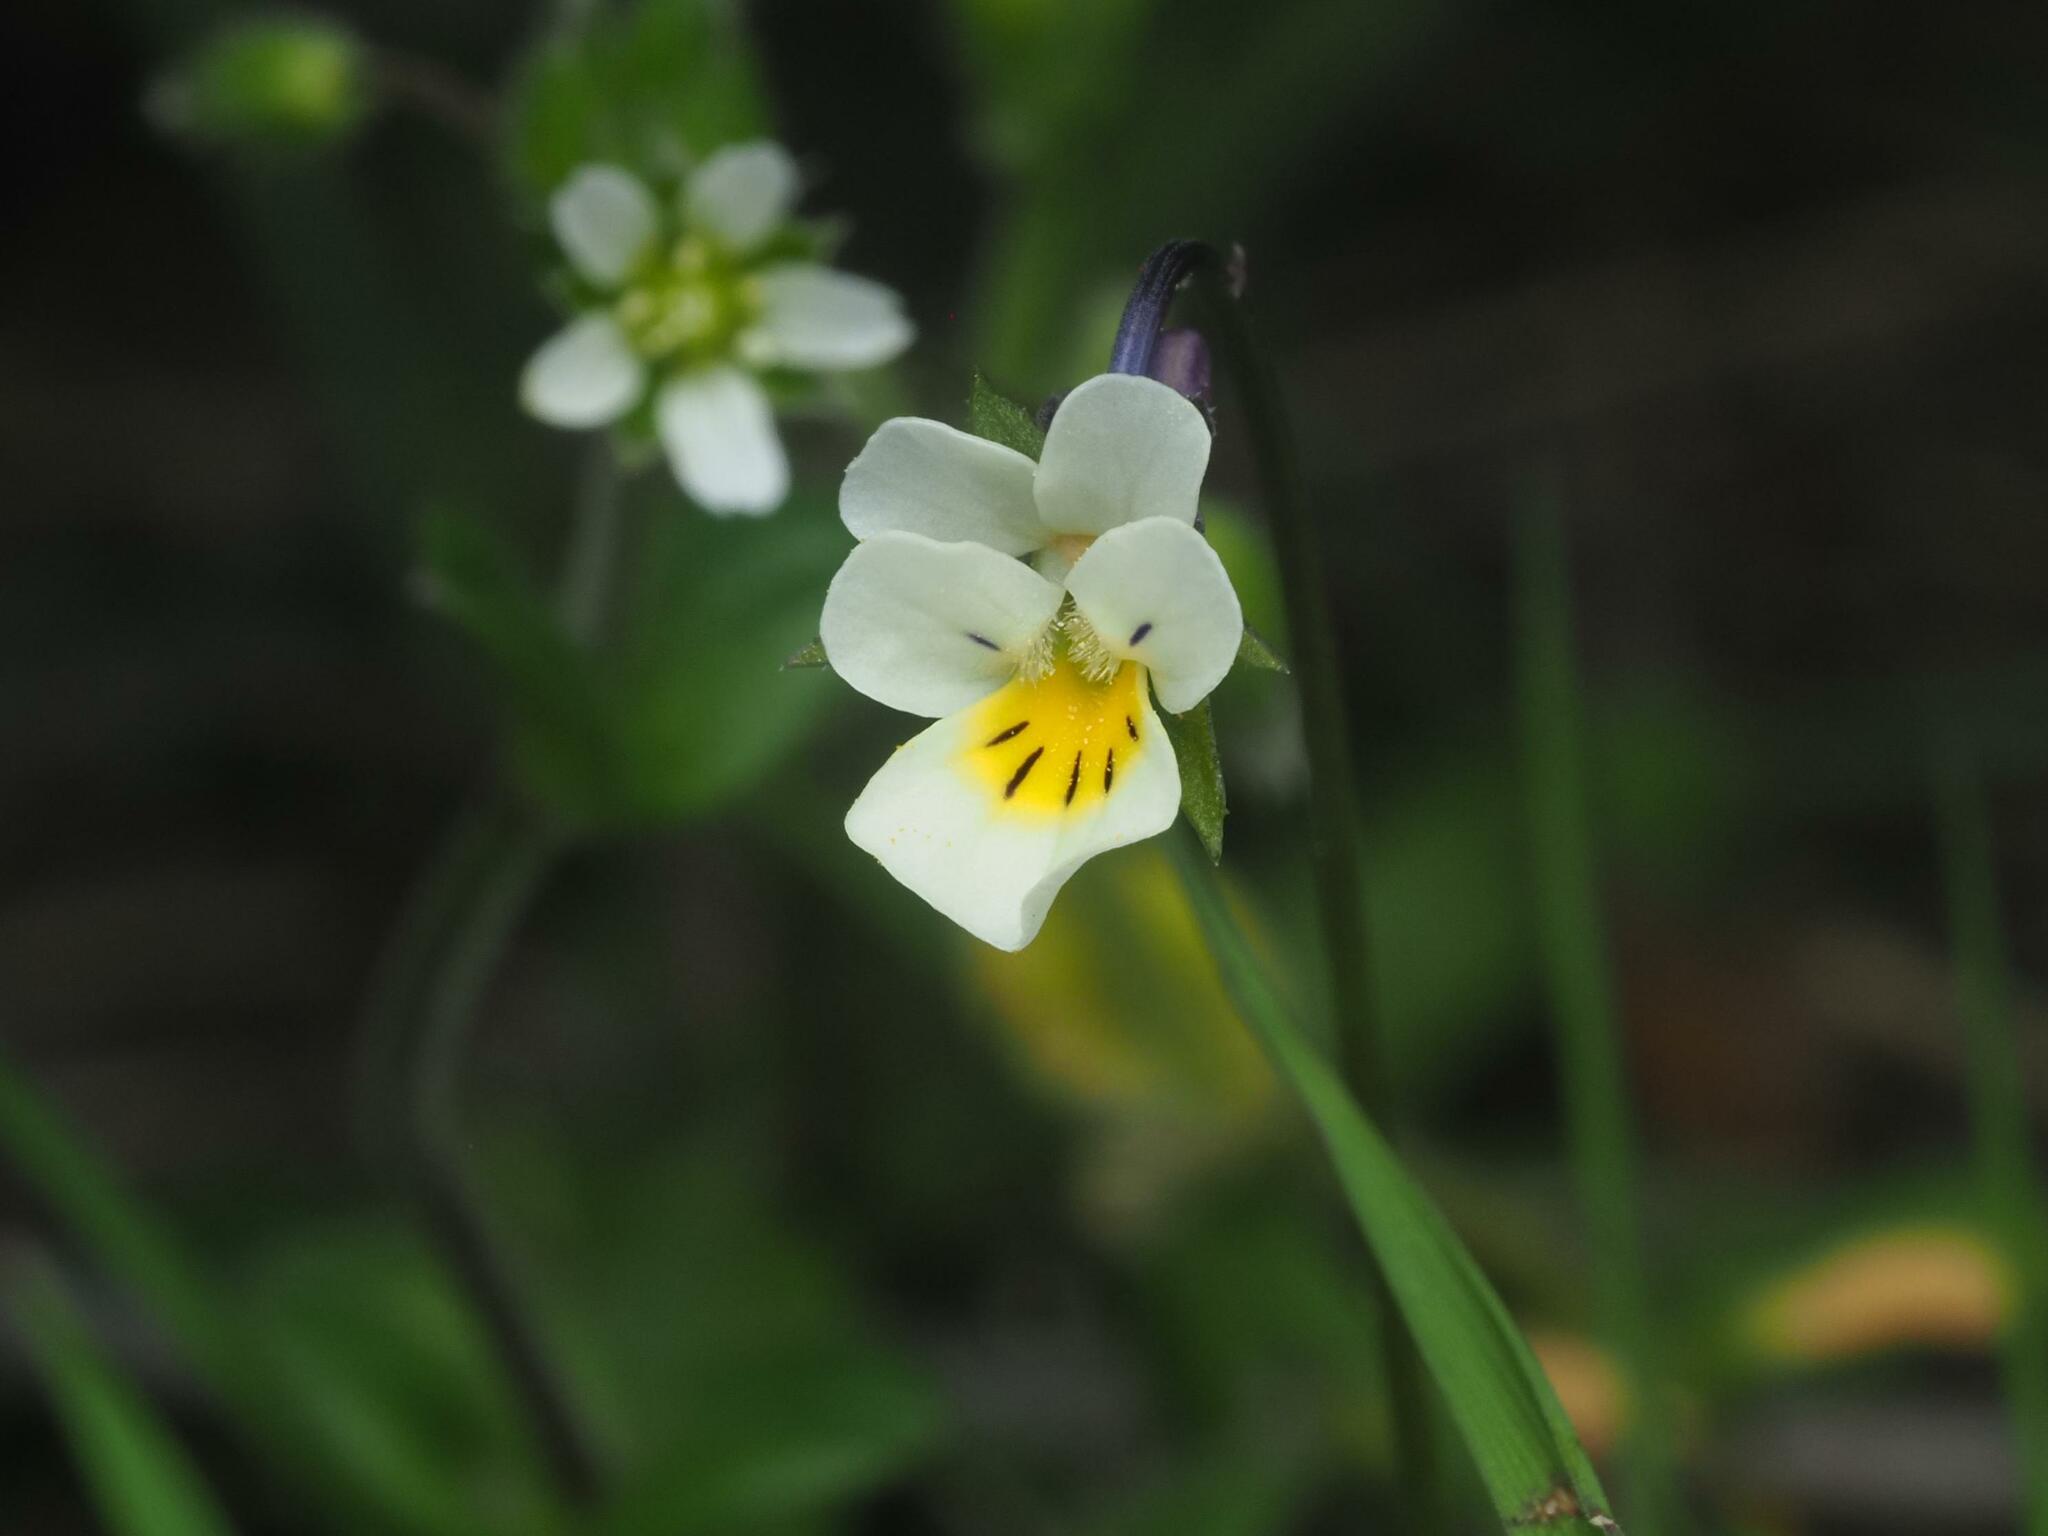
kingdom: Plantae
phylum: Tracheophyta
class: Magnoliopsida
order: Malpighiales
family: Violaceae
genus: Viola
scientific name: Viola arvensis
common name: Field pansy
